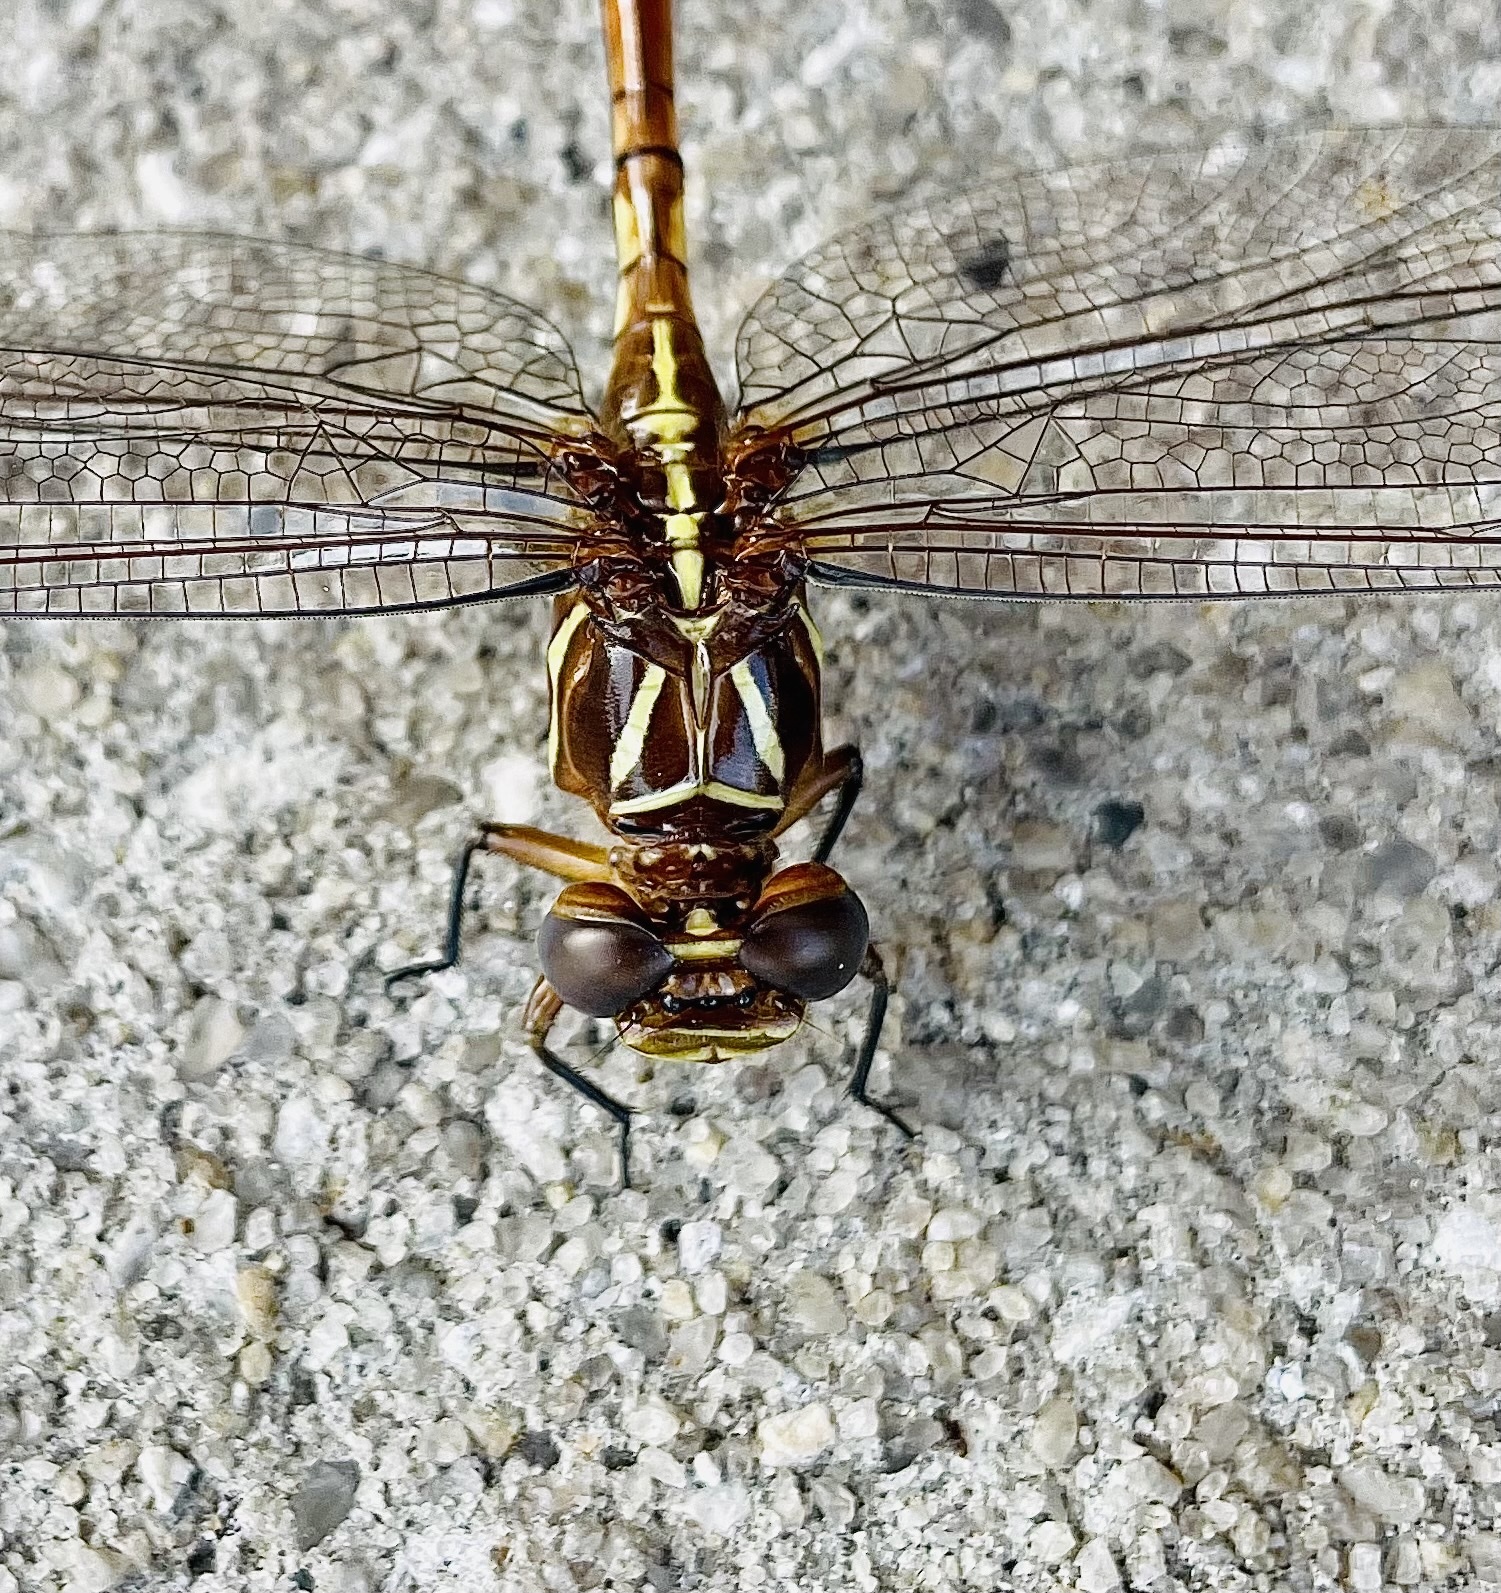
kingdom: Animalia
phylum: Arthropoda
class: Insecta
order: Odonata
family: Gomphidae
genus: Aphylla
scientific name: Aphylla williamsoni
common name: Two-striped forceptail
